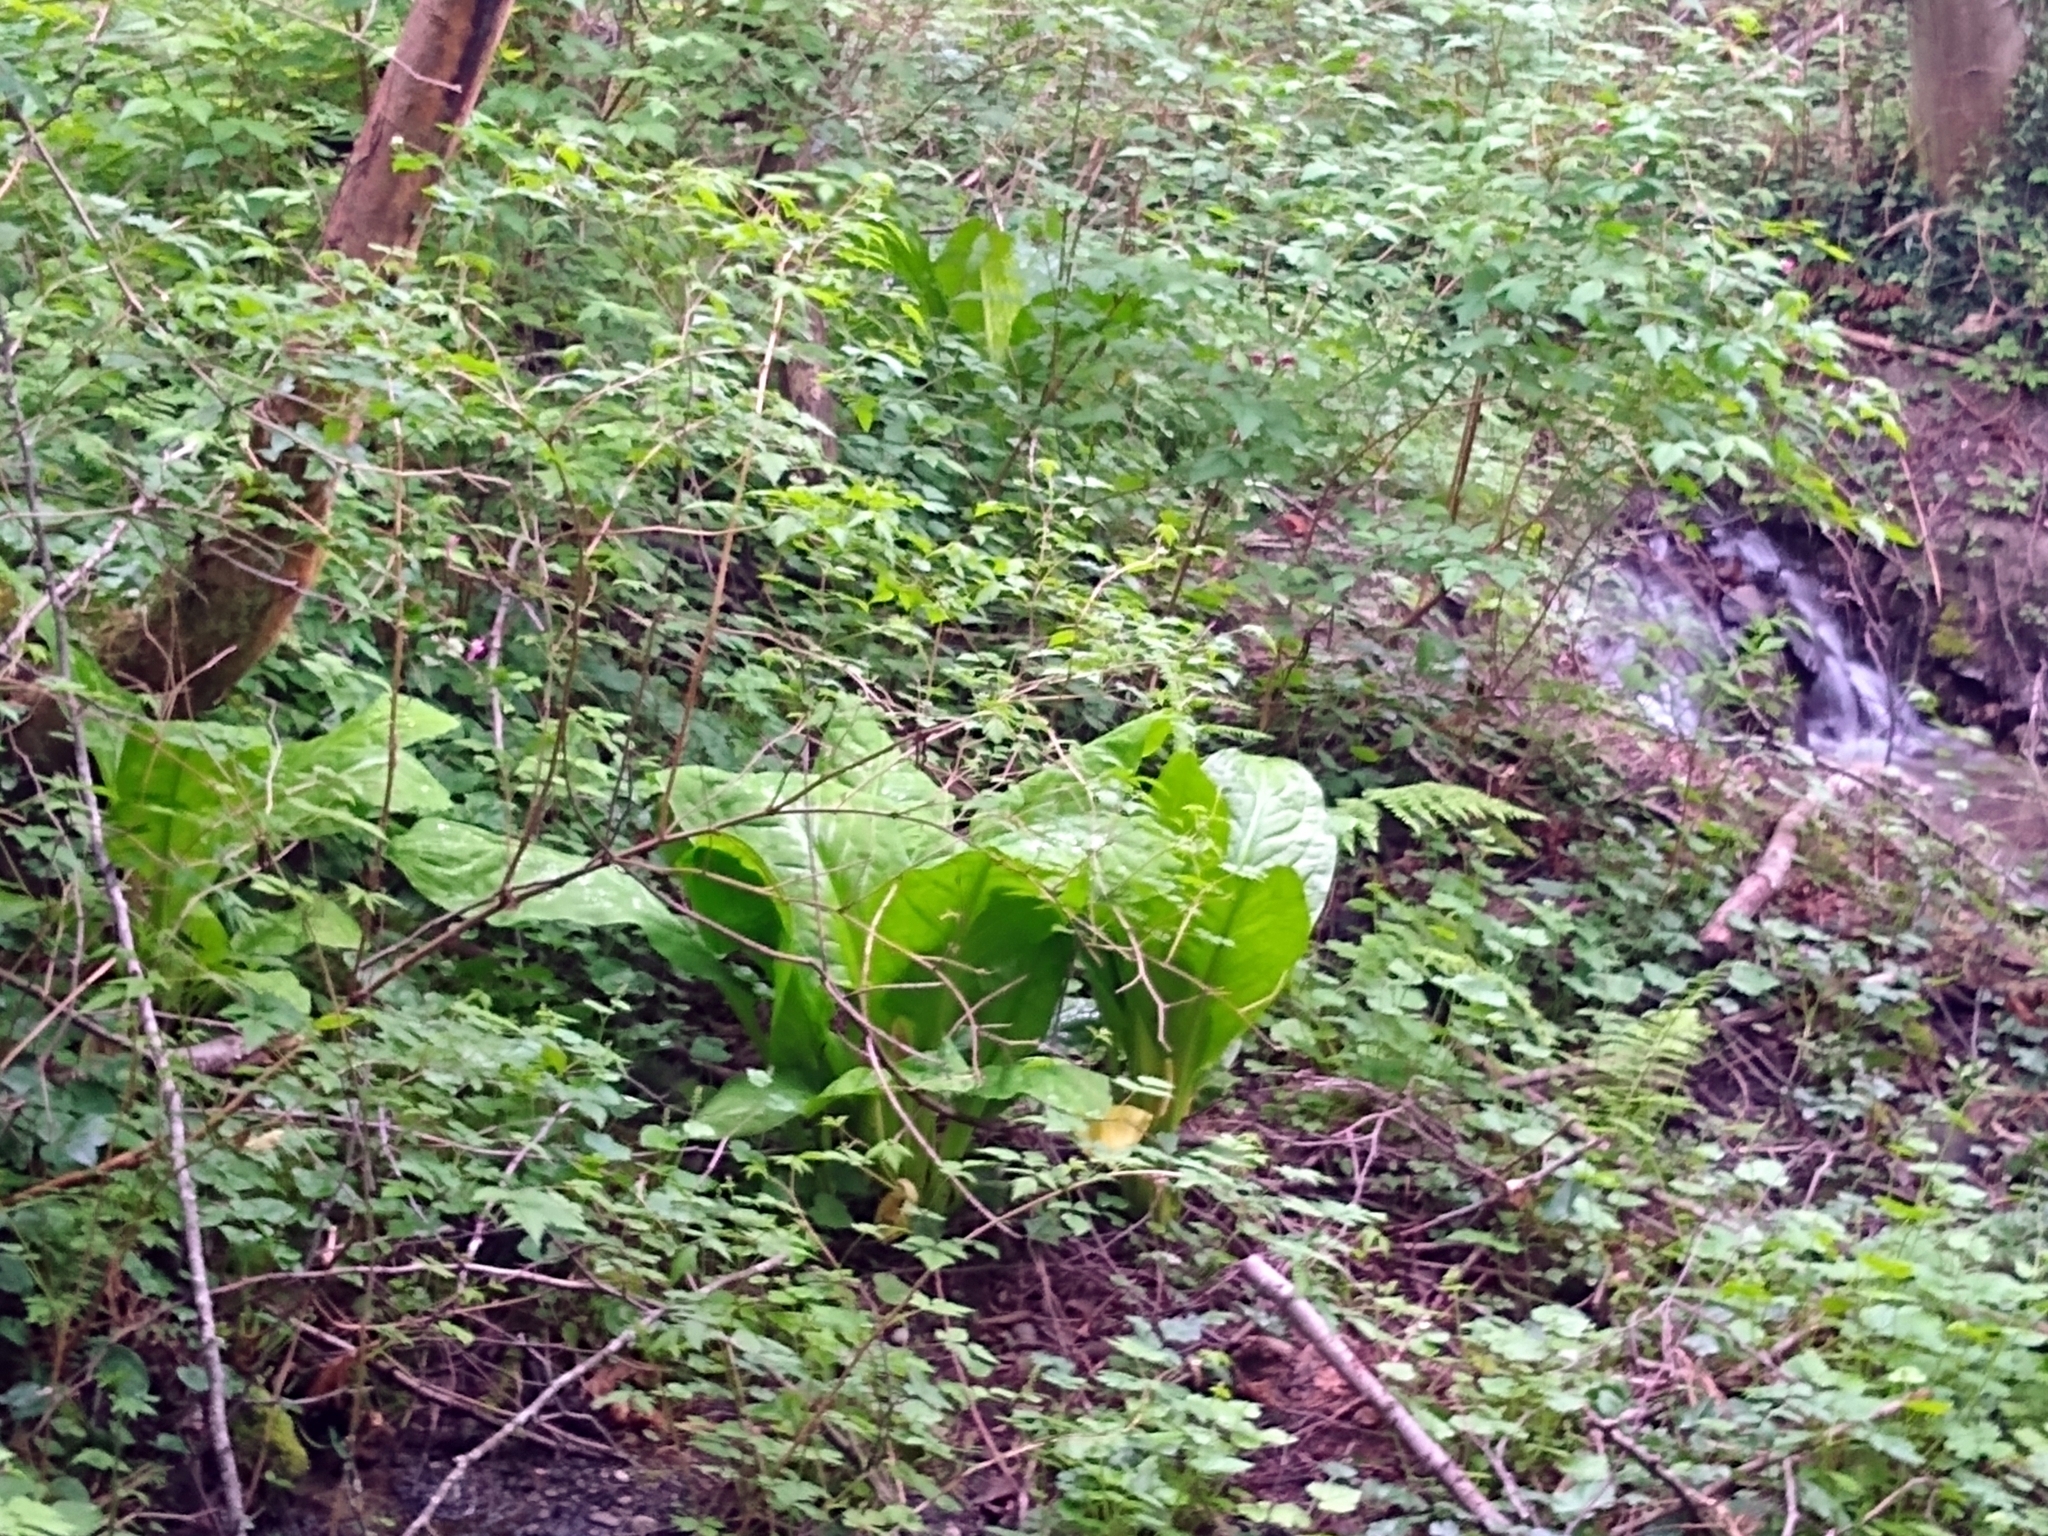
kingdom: Plantae
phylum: Tracheophyta
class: Liliopsida
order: Alismatales
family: Araceae
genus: Lysichiton
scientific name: Lysichiton americanus
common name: American skunk cabbage
